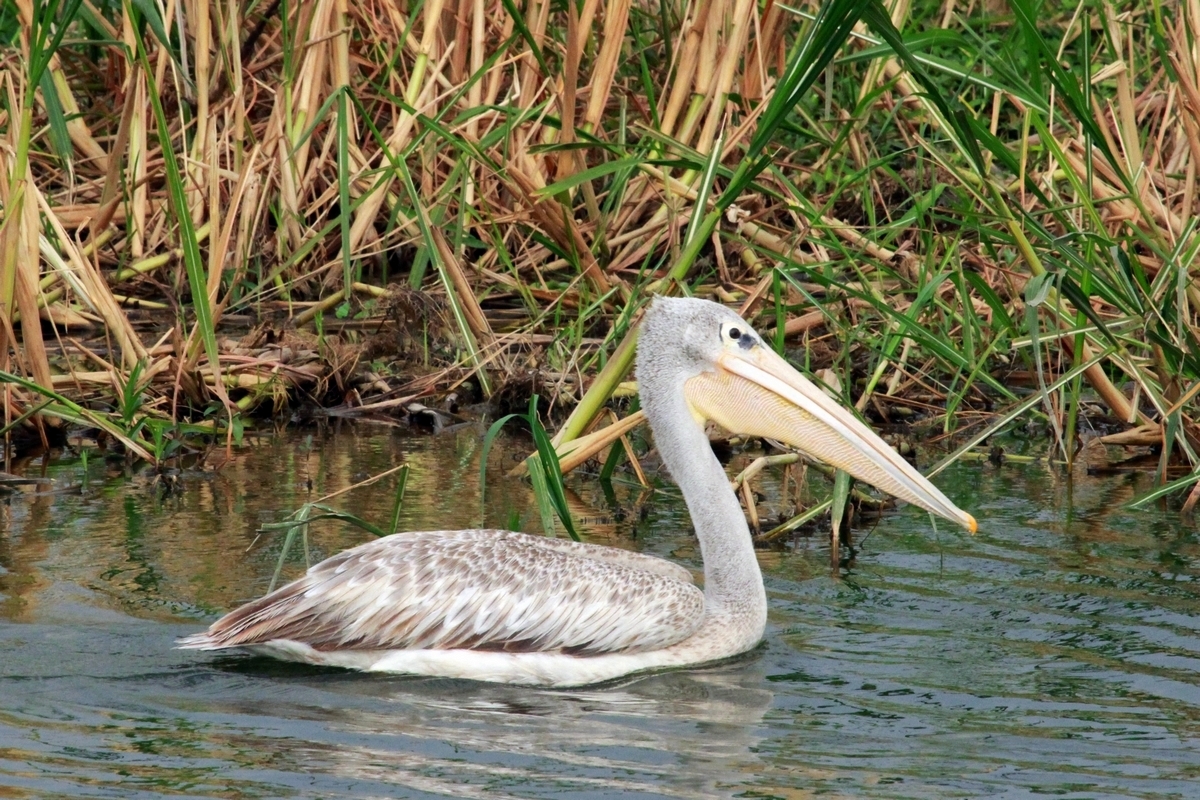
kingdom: Animalia
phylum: Chordata
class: Aves
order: Pelecaniformes
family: Pelecanidae
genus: Pelecanus
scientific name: Pelecanus rufescens
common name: Pink-backed pelican
